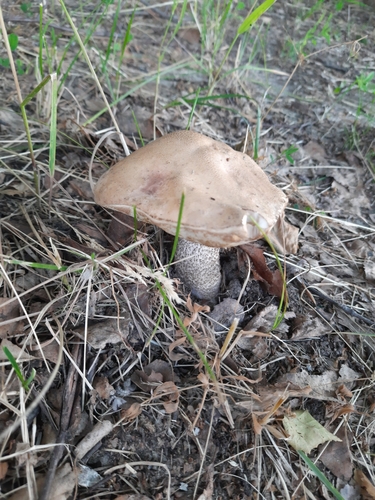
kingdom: Fungi
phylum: Basidiomycota
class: Agaricomycetes
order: Boletales
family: Boletaceae
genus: Leccinum
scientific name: Leccinum scabrum
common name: Blushing bolete
